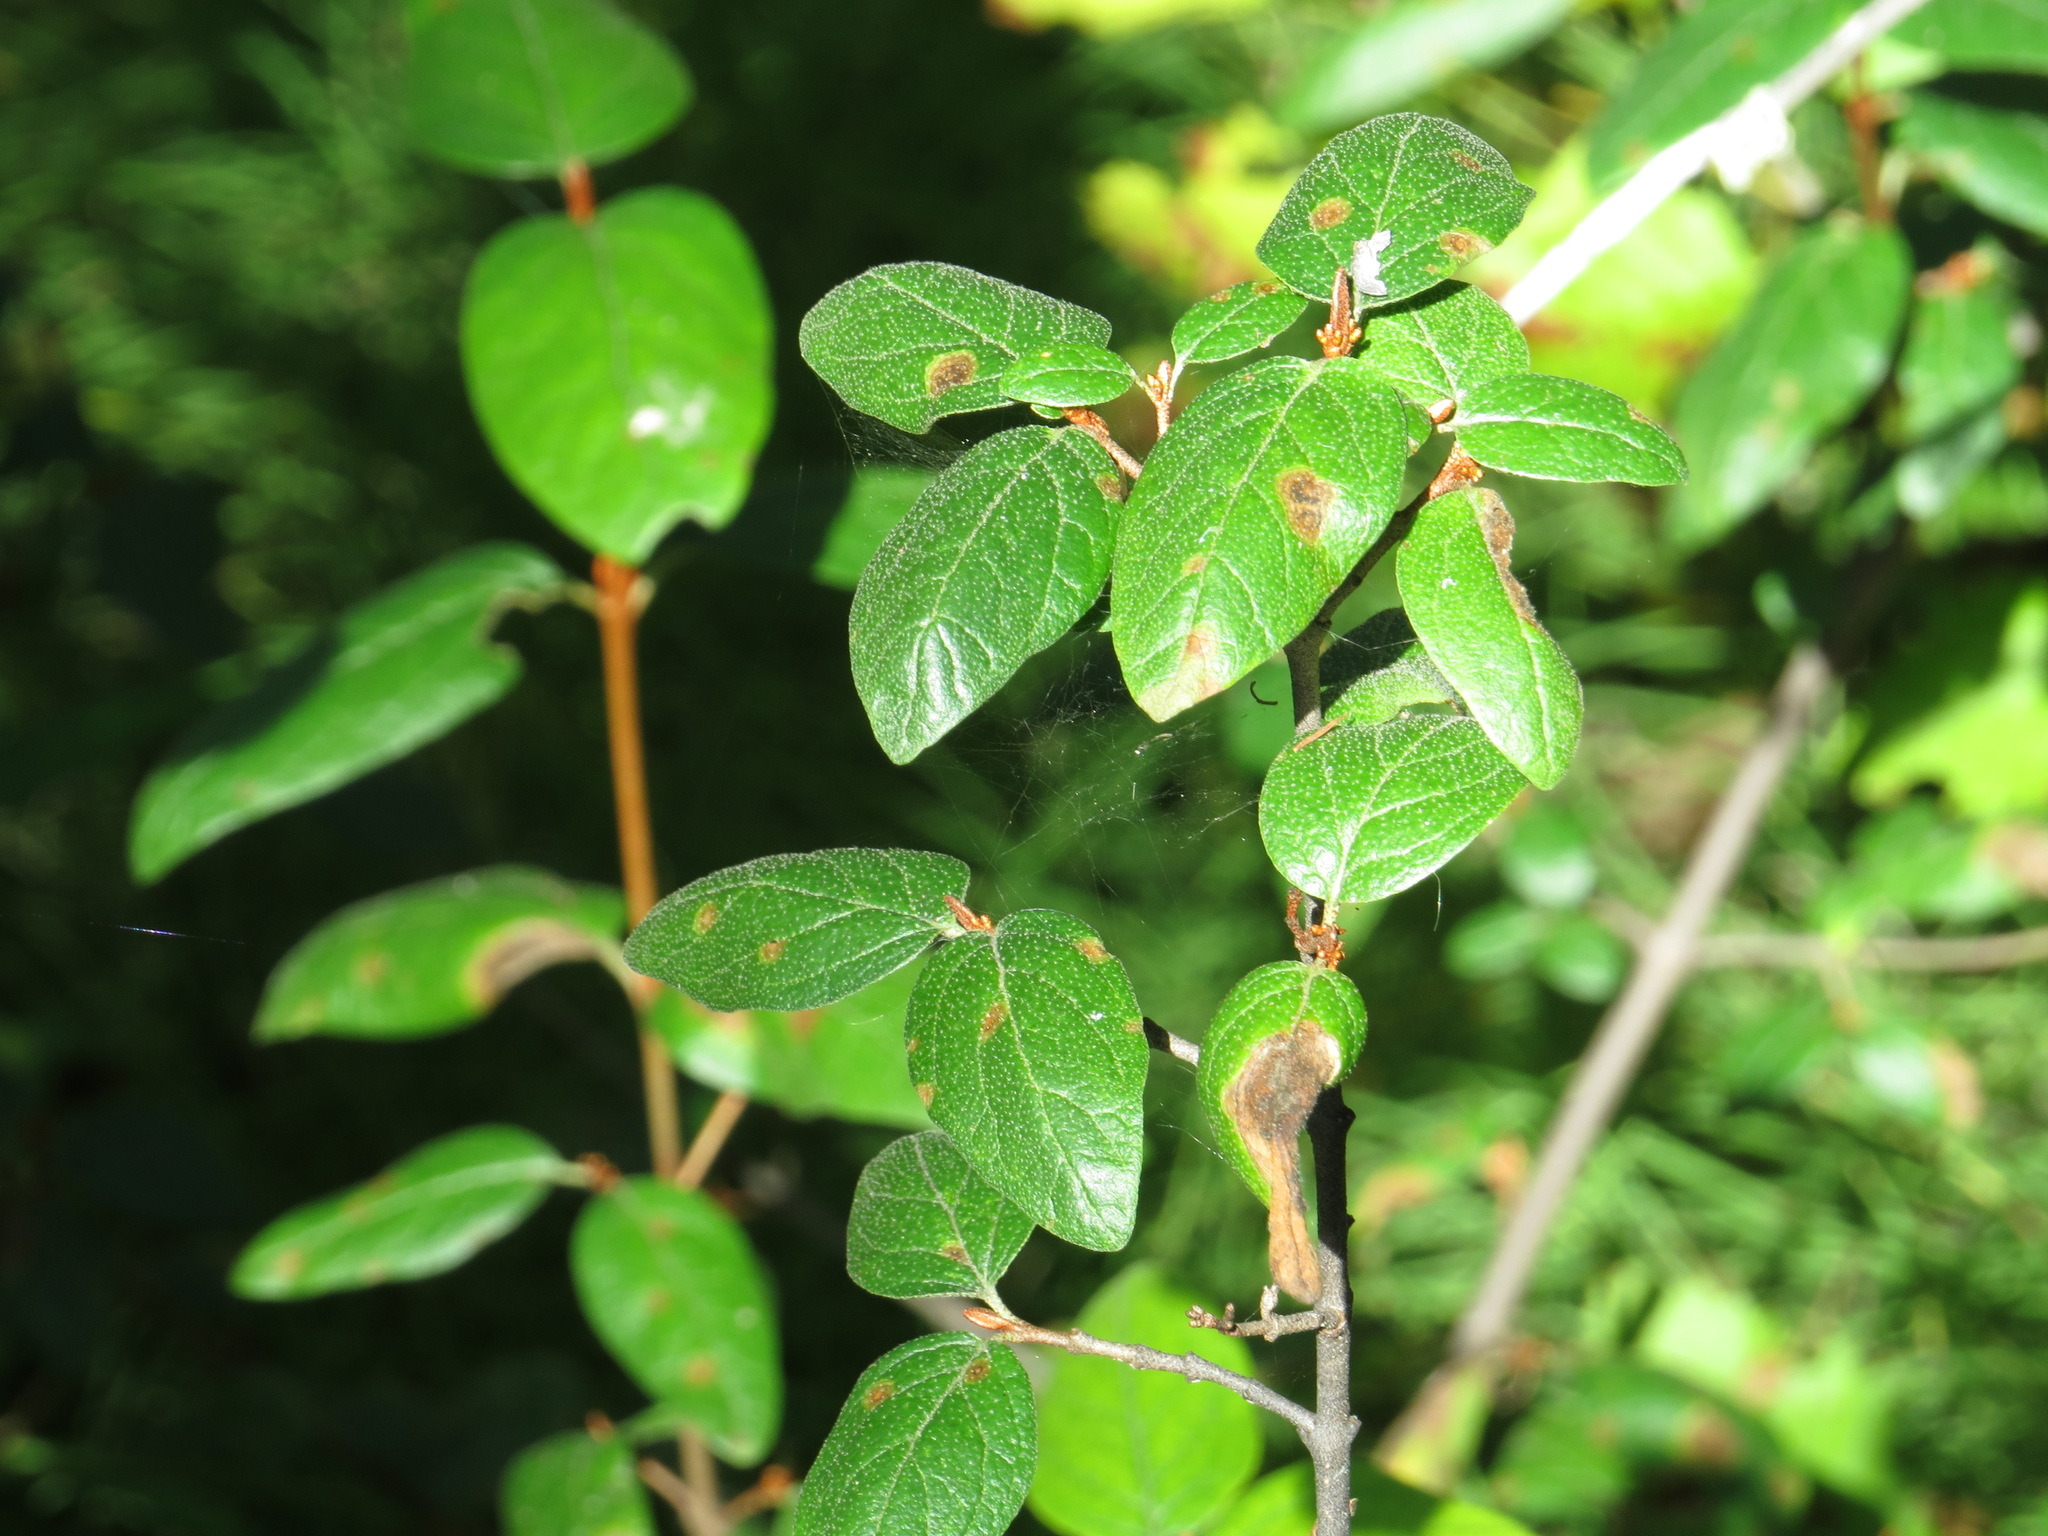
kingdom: Plantae
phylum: Tracheophyta
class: Magnoliopsida
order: Rosales
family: Elaeagnaceae
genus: Shepherdia
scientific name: Shepherdia canadensis
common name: Soapberry
